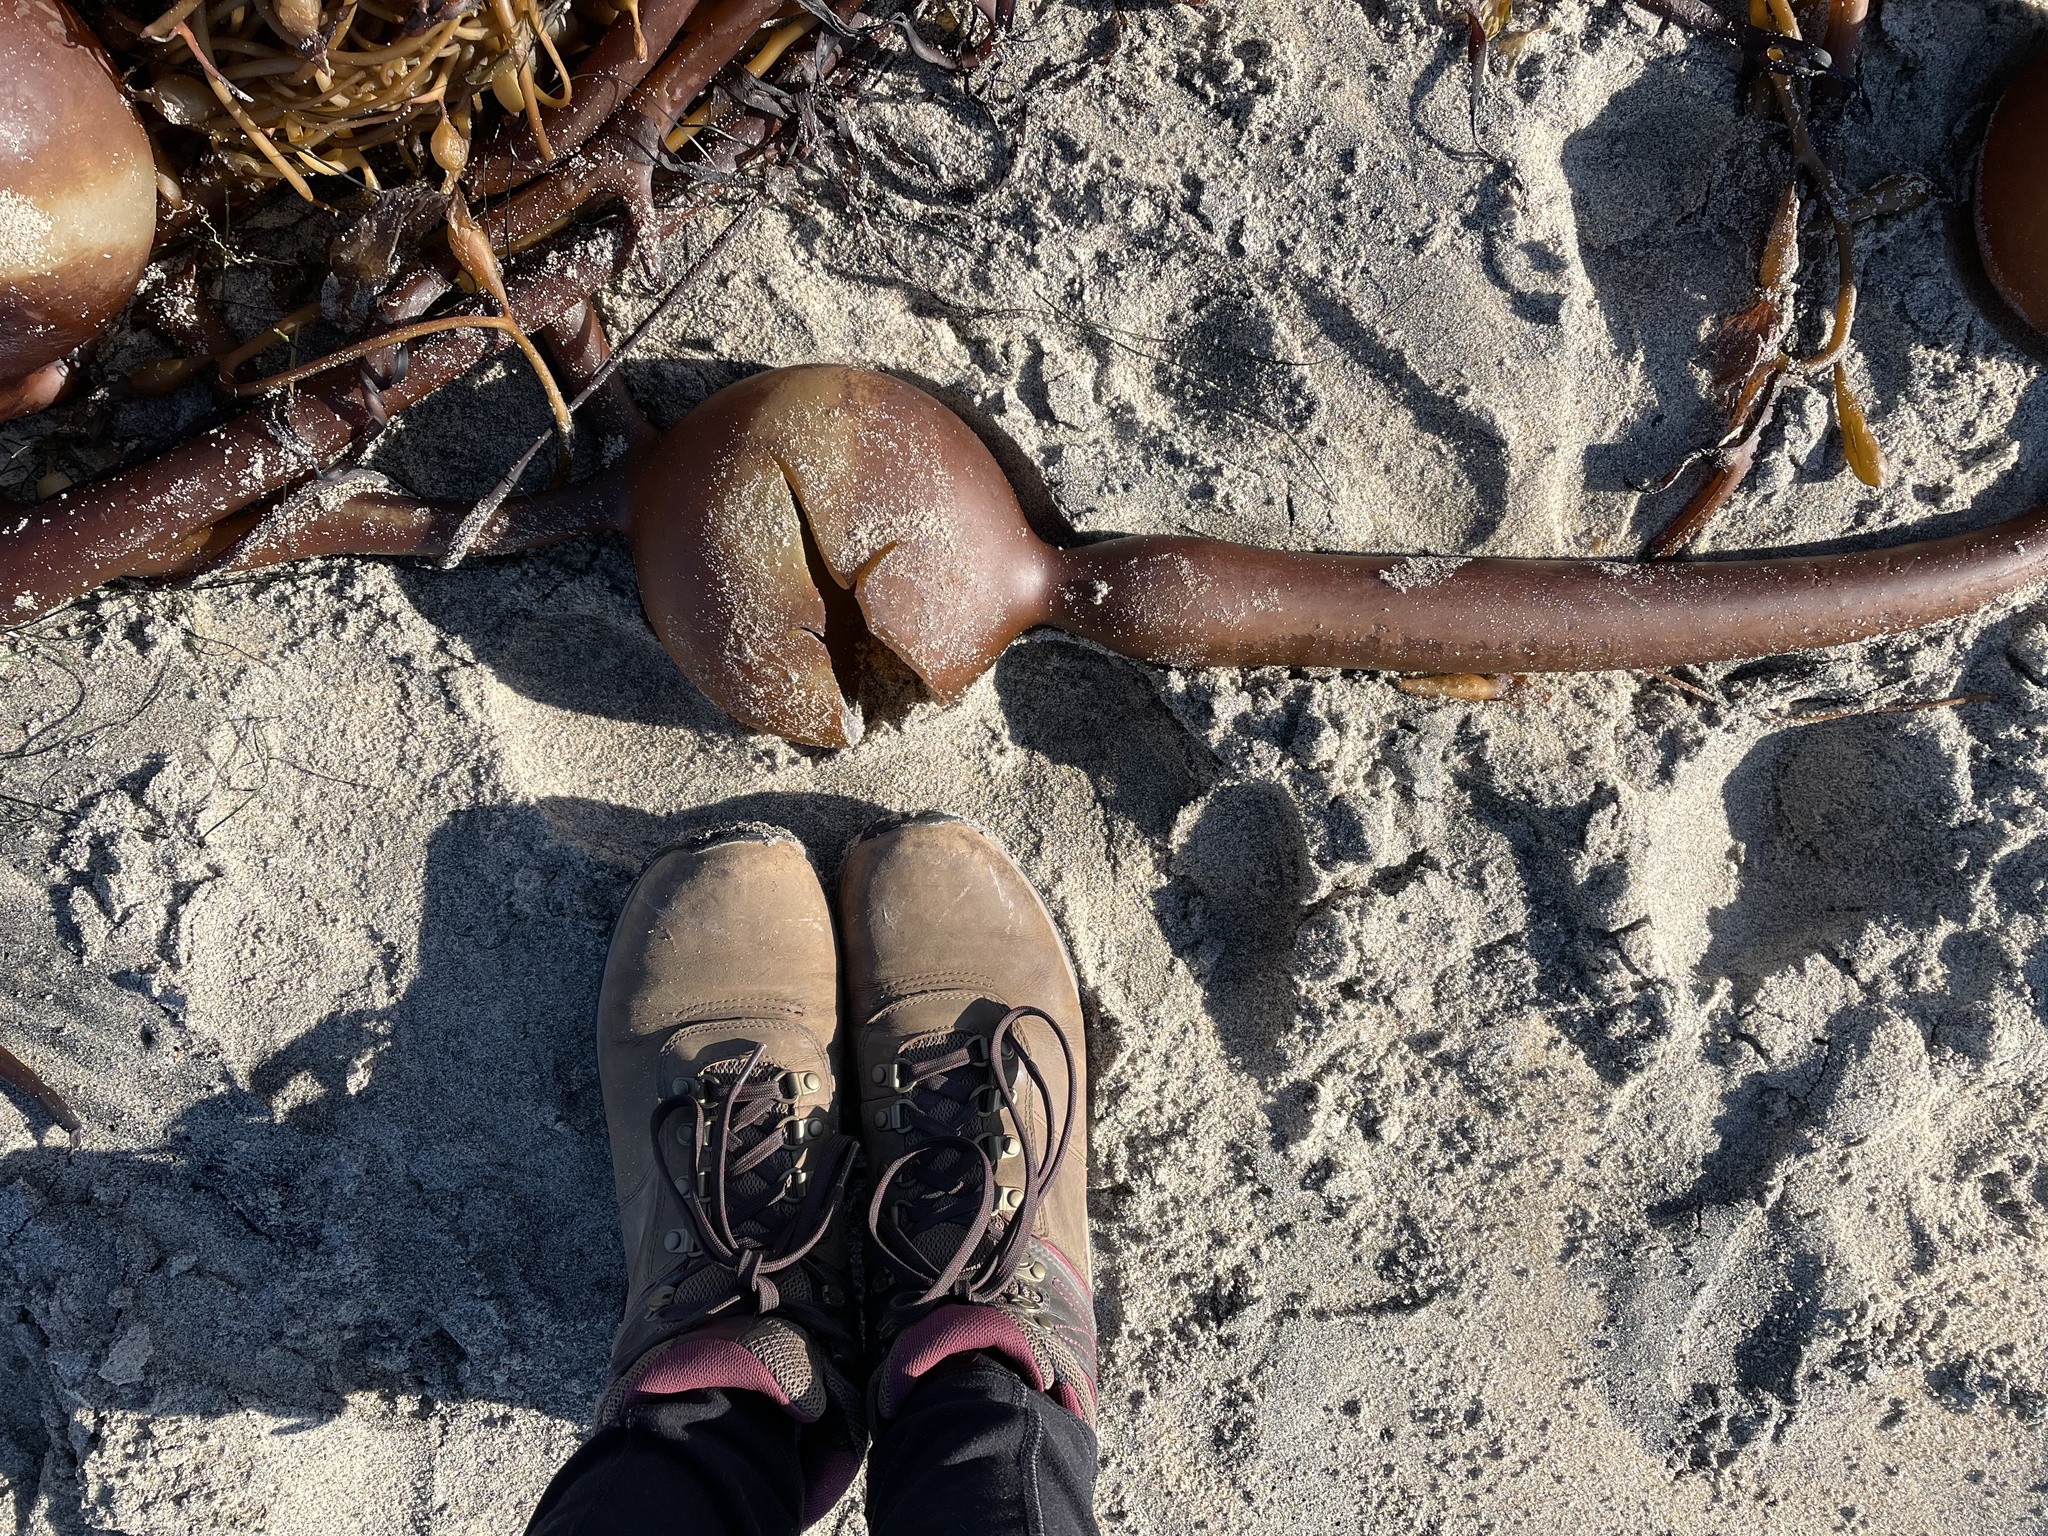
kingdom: Chromista
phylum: Ochrophyta
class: Phaeophyceae
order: Laminariales
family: Laminariaceae
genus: Pelagophycus
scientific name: Pelagophycus porra
